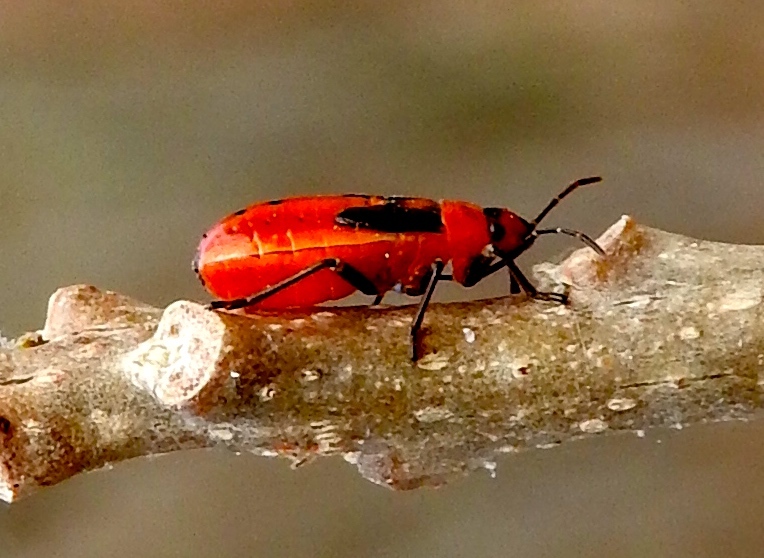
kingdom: Animalia
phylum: Arthropoda
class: Insecta
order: Hemiptera
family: Lygaeidae
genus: Lygaeus
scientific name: Lygaeus
